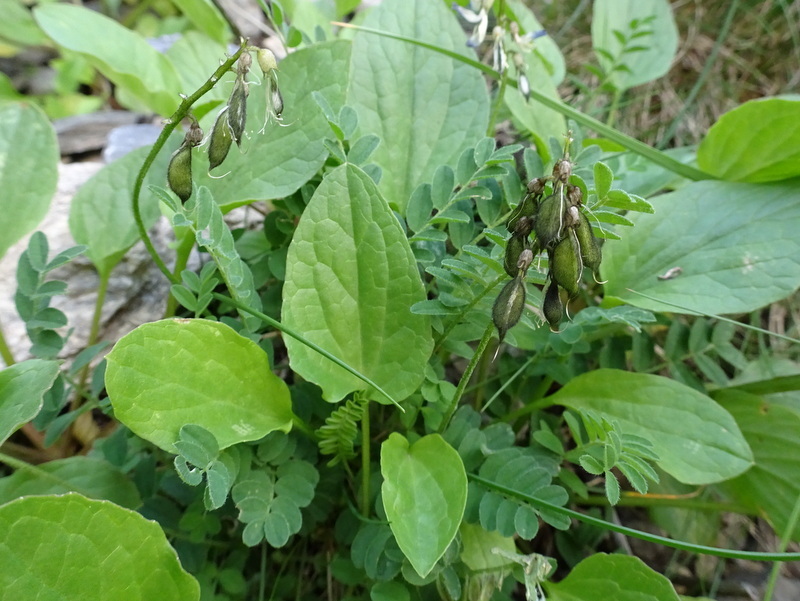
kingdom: Plantae
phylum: Tracheophyta
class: Magnoliopsida
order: Fabales
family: Fabaceae
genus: Astragalus
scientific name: Astragalus alpinus
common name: Alpine milk-vetch
